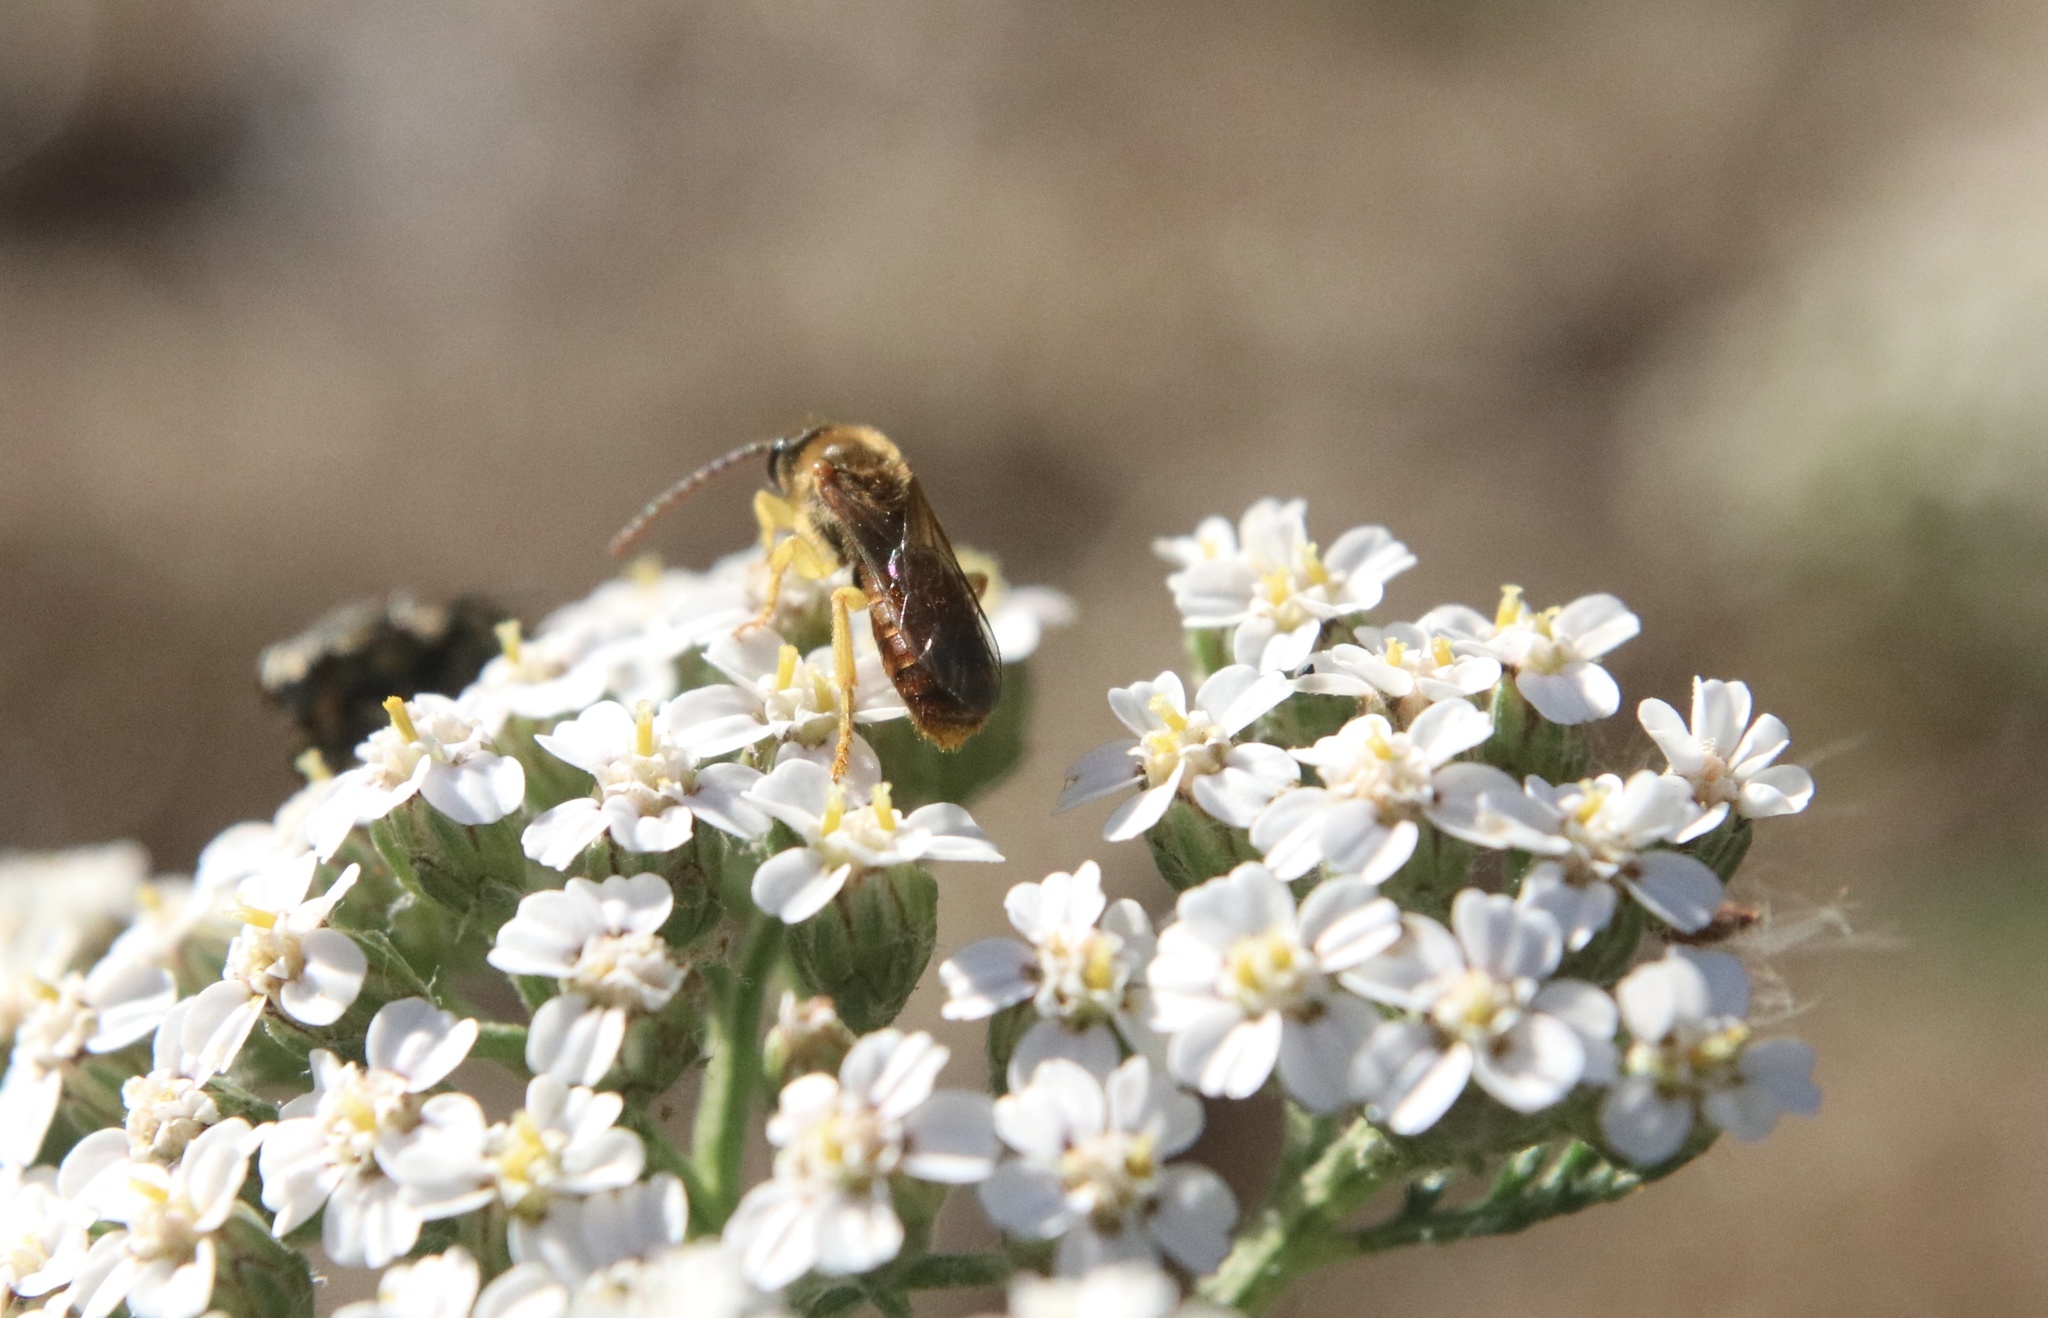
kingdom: Animalia
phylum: Arthropoda
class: Insecta
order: Hymenoptera
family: Halictidae
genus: Ruizantheda
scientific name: Ruizantheda proxima
